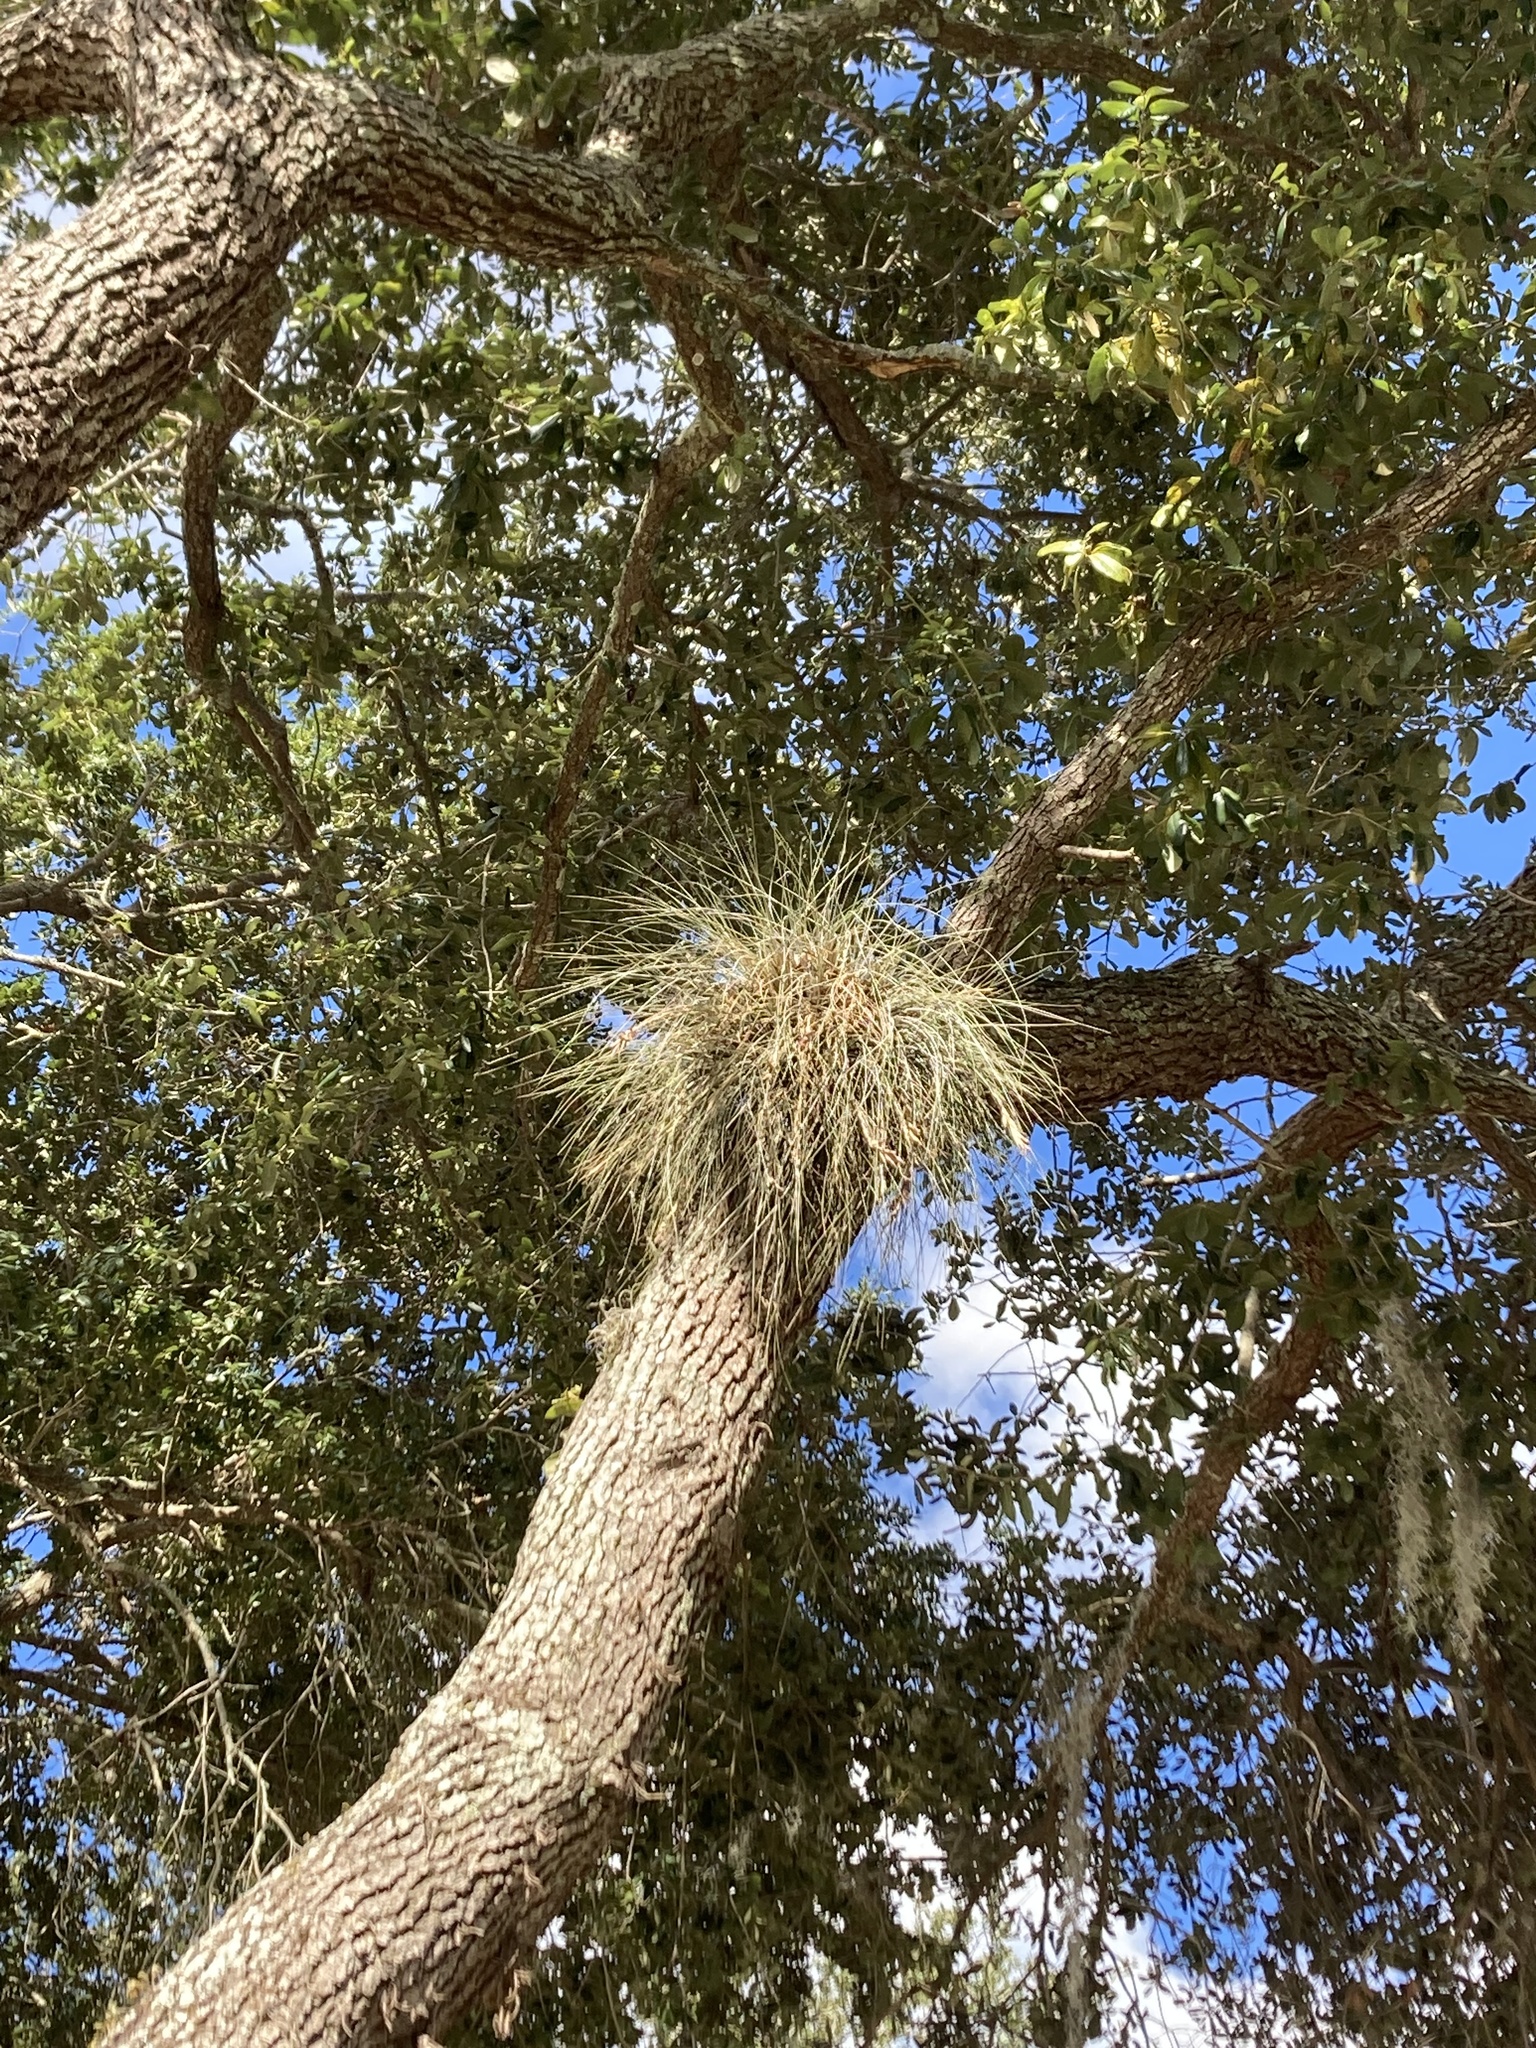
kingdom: Plantae
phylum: Tracheophyta
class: Liliopsida
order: Poales
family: Bromeliaceae
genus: Tillandsia
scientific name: Tillandsia bartramii
